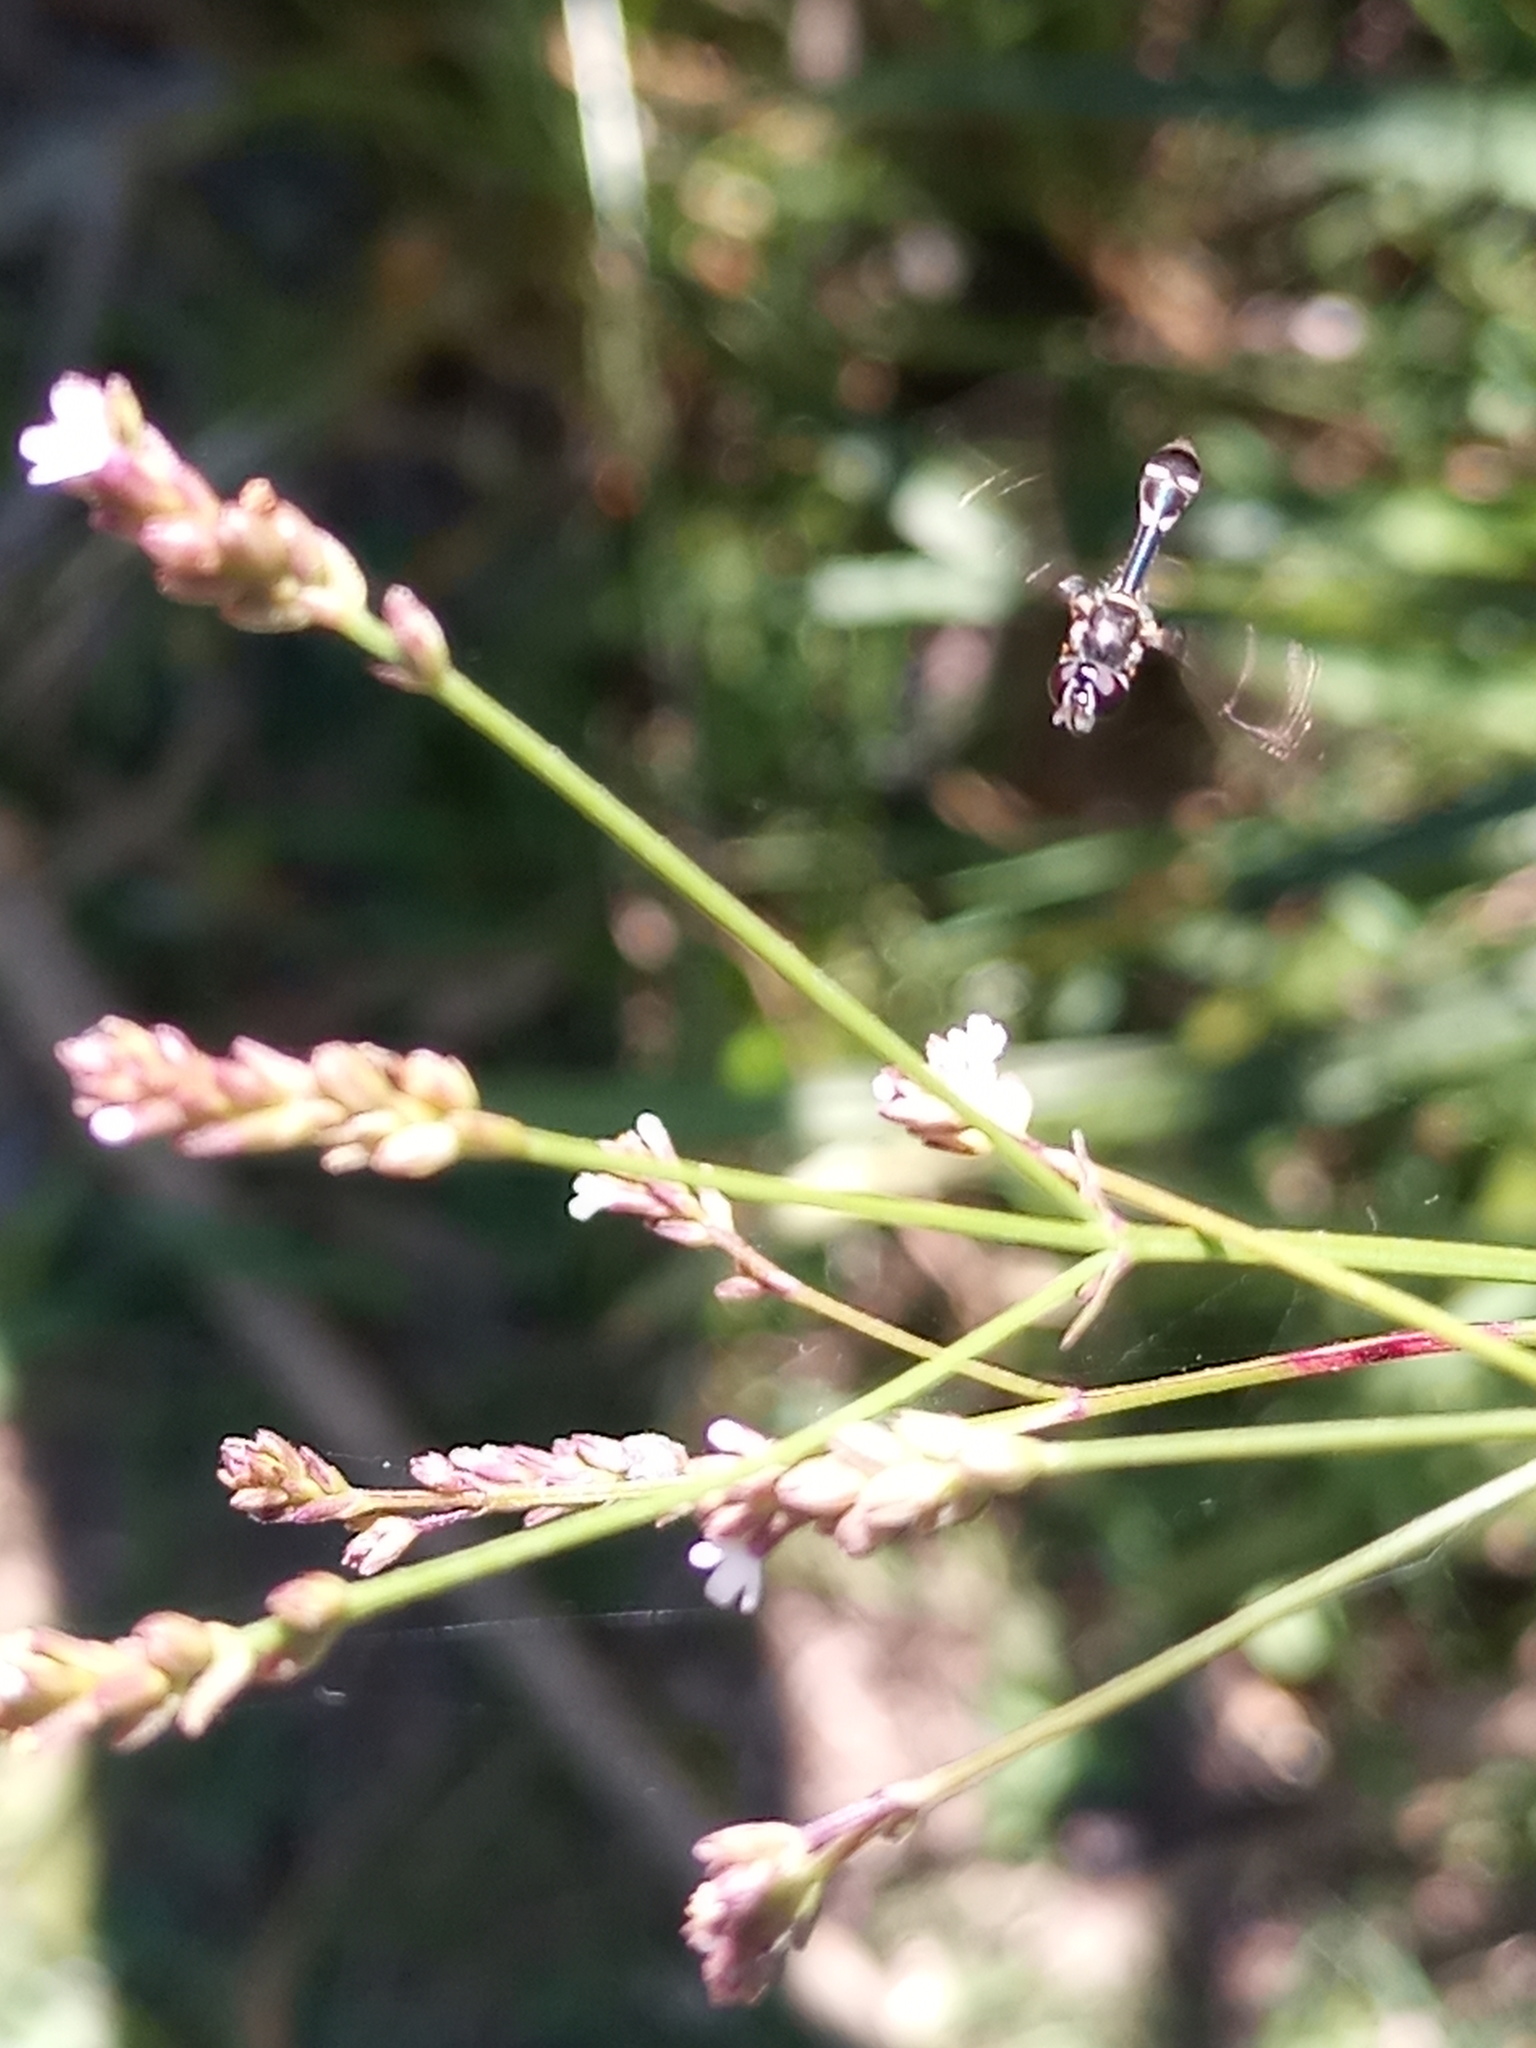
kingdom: Animalia
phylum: Arthropoda
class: Insecta
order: Diptera
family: Syrphidae
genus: Dioprosopa
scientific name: Dioprosopa clavatus
